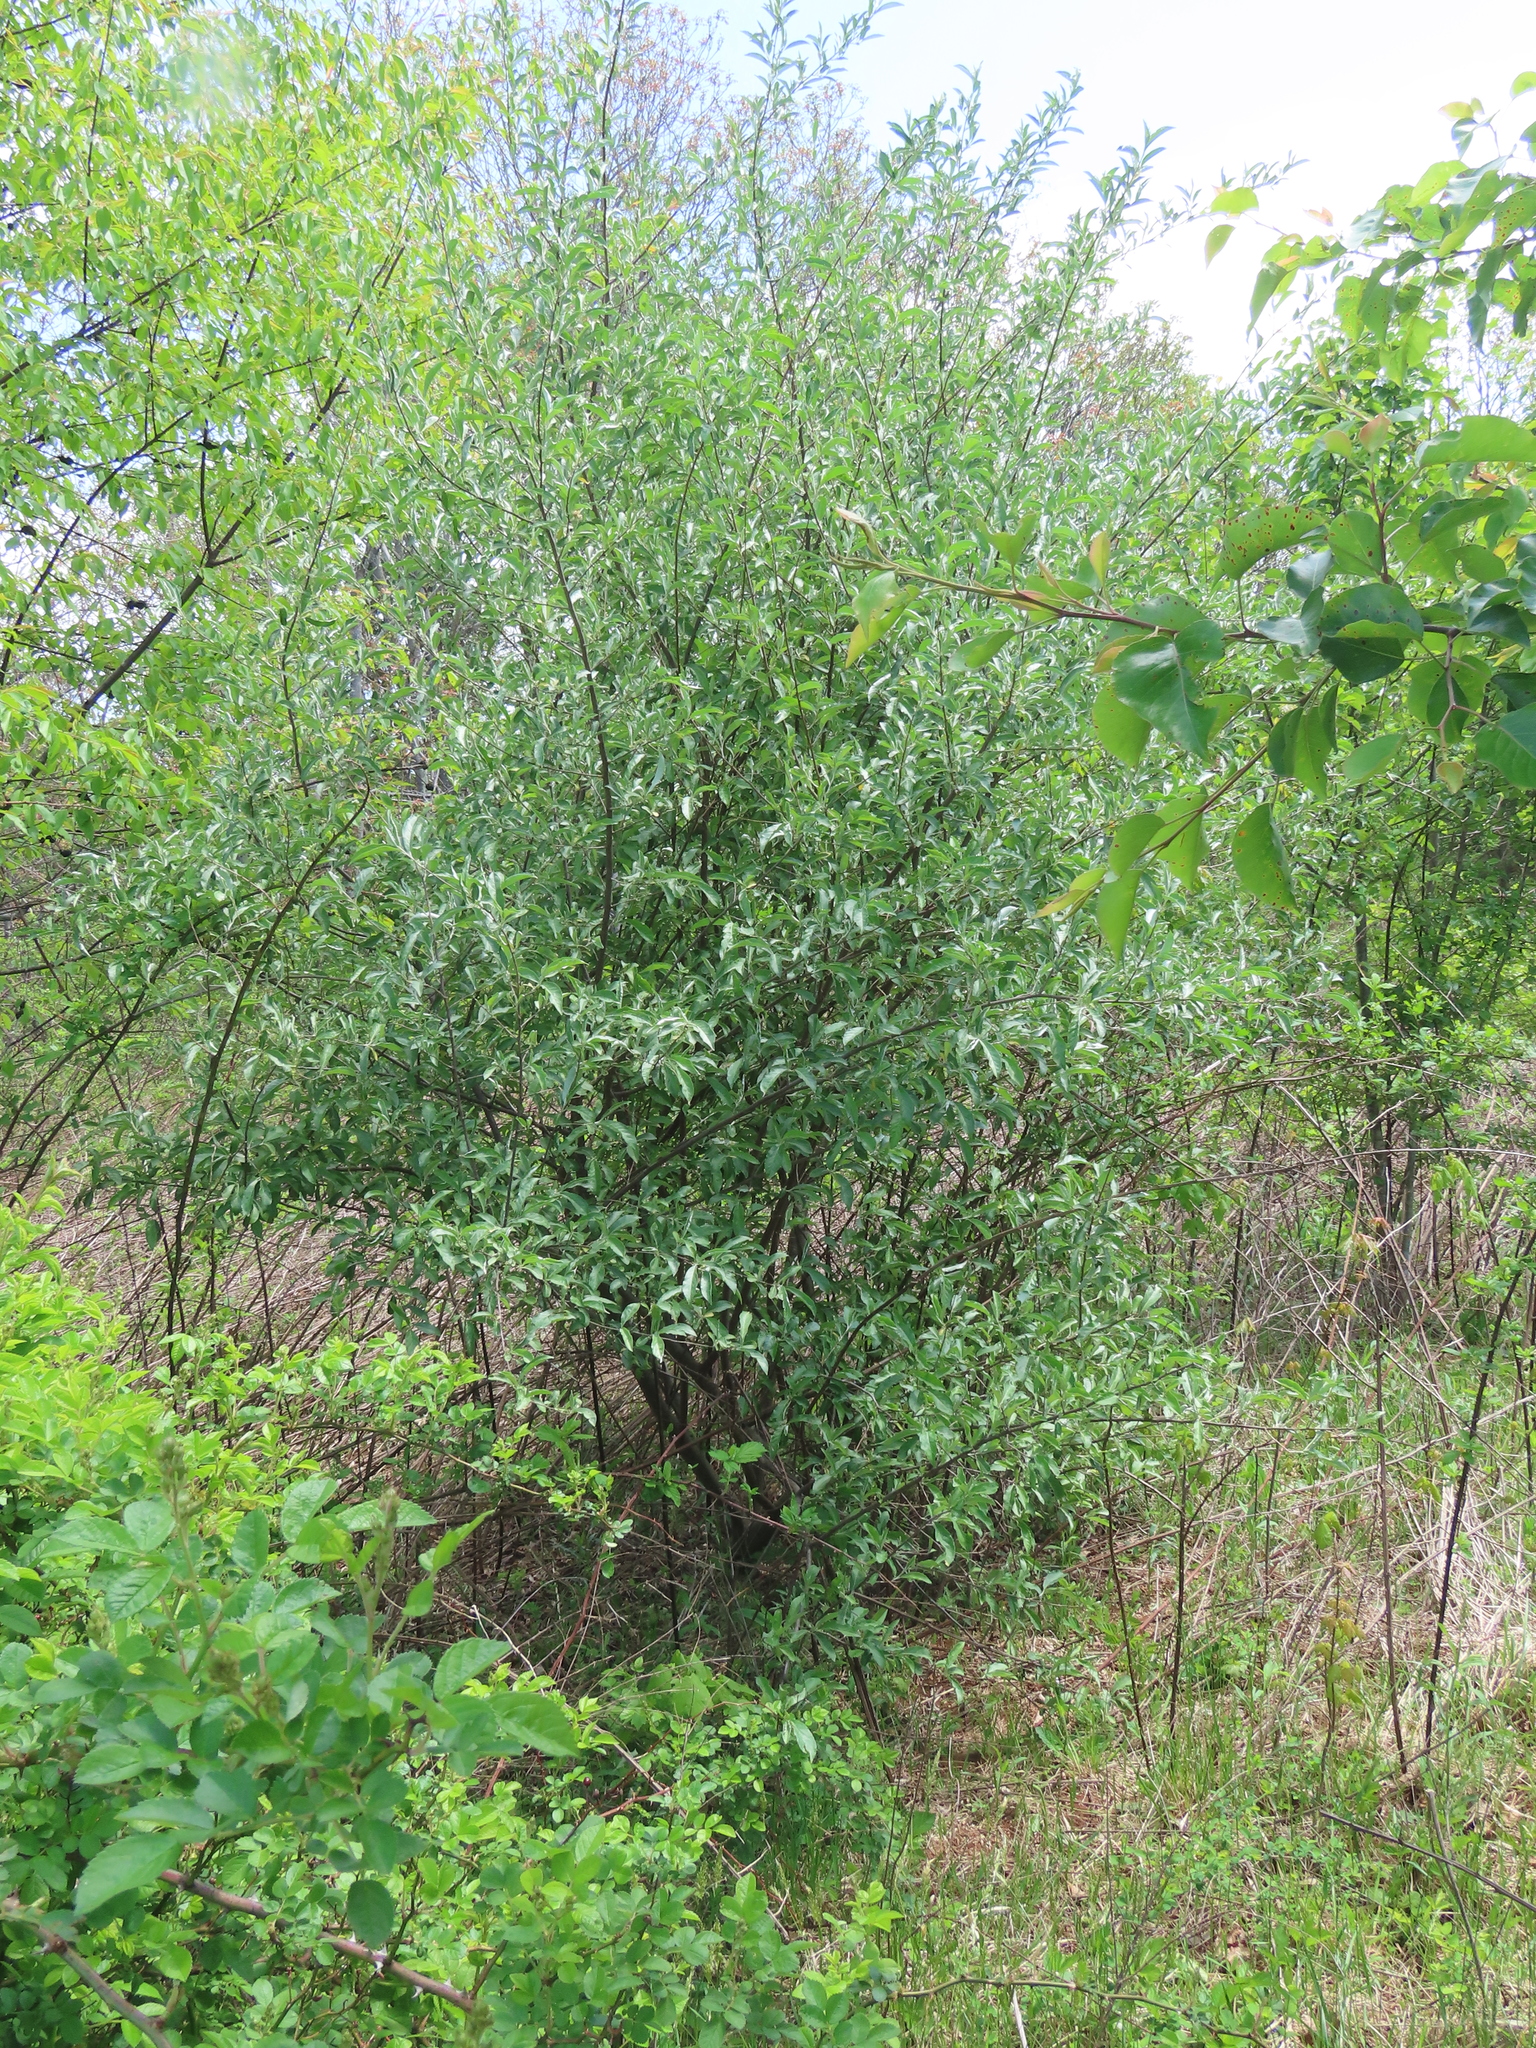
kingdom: Plantae
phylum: Tracheophyta
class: Magnoliopsida
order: Rosales
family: Elaeagnaceae
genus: Elaeagnus
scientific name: Elaeagnus umbellata
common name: Autumn olive
